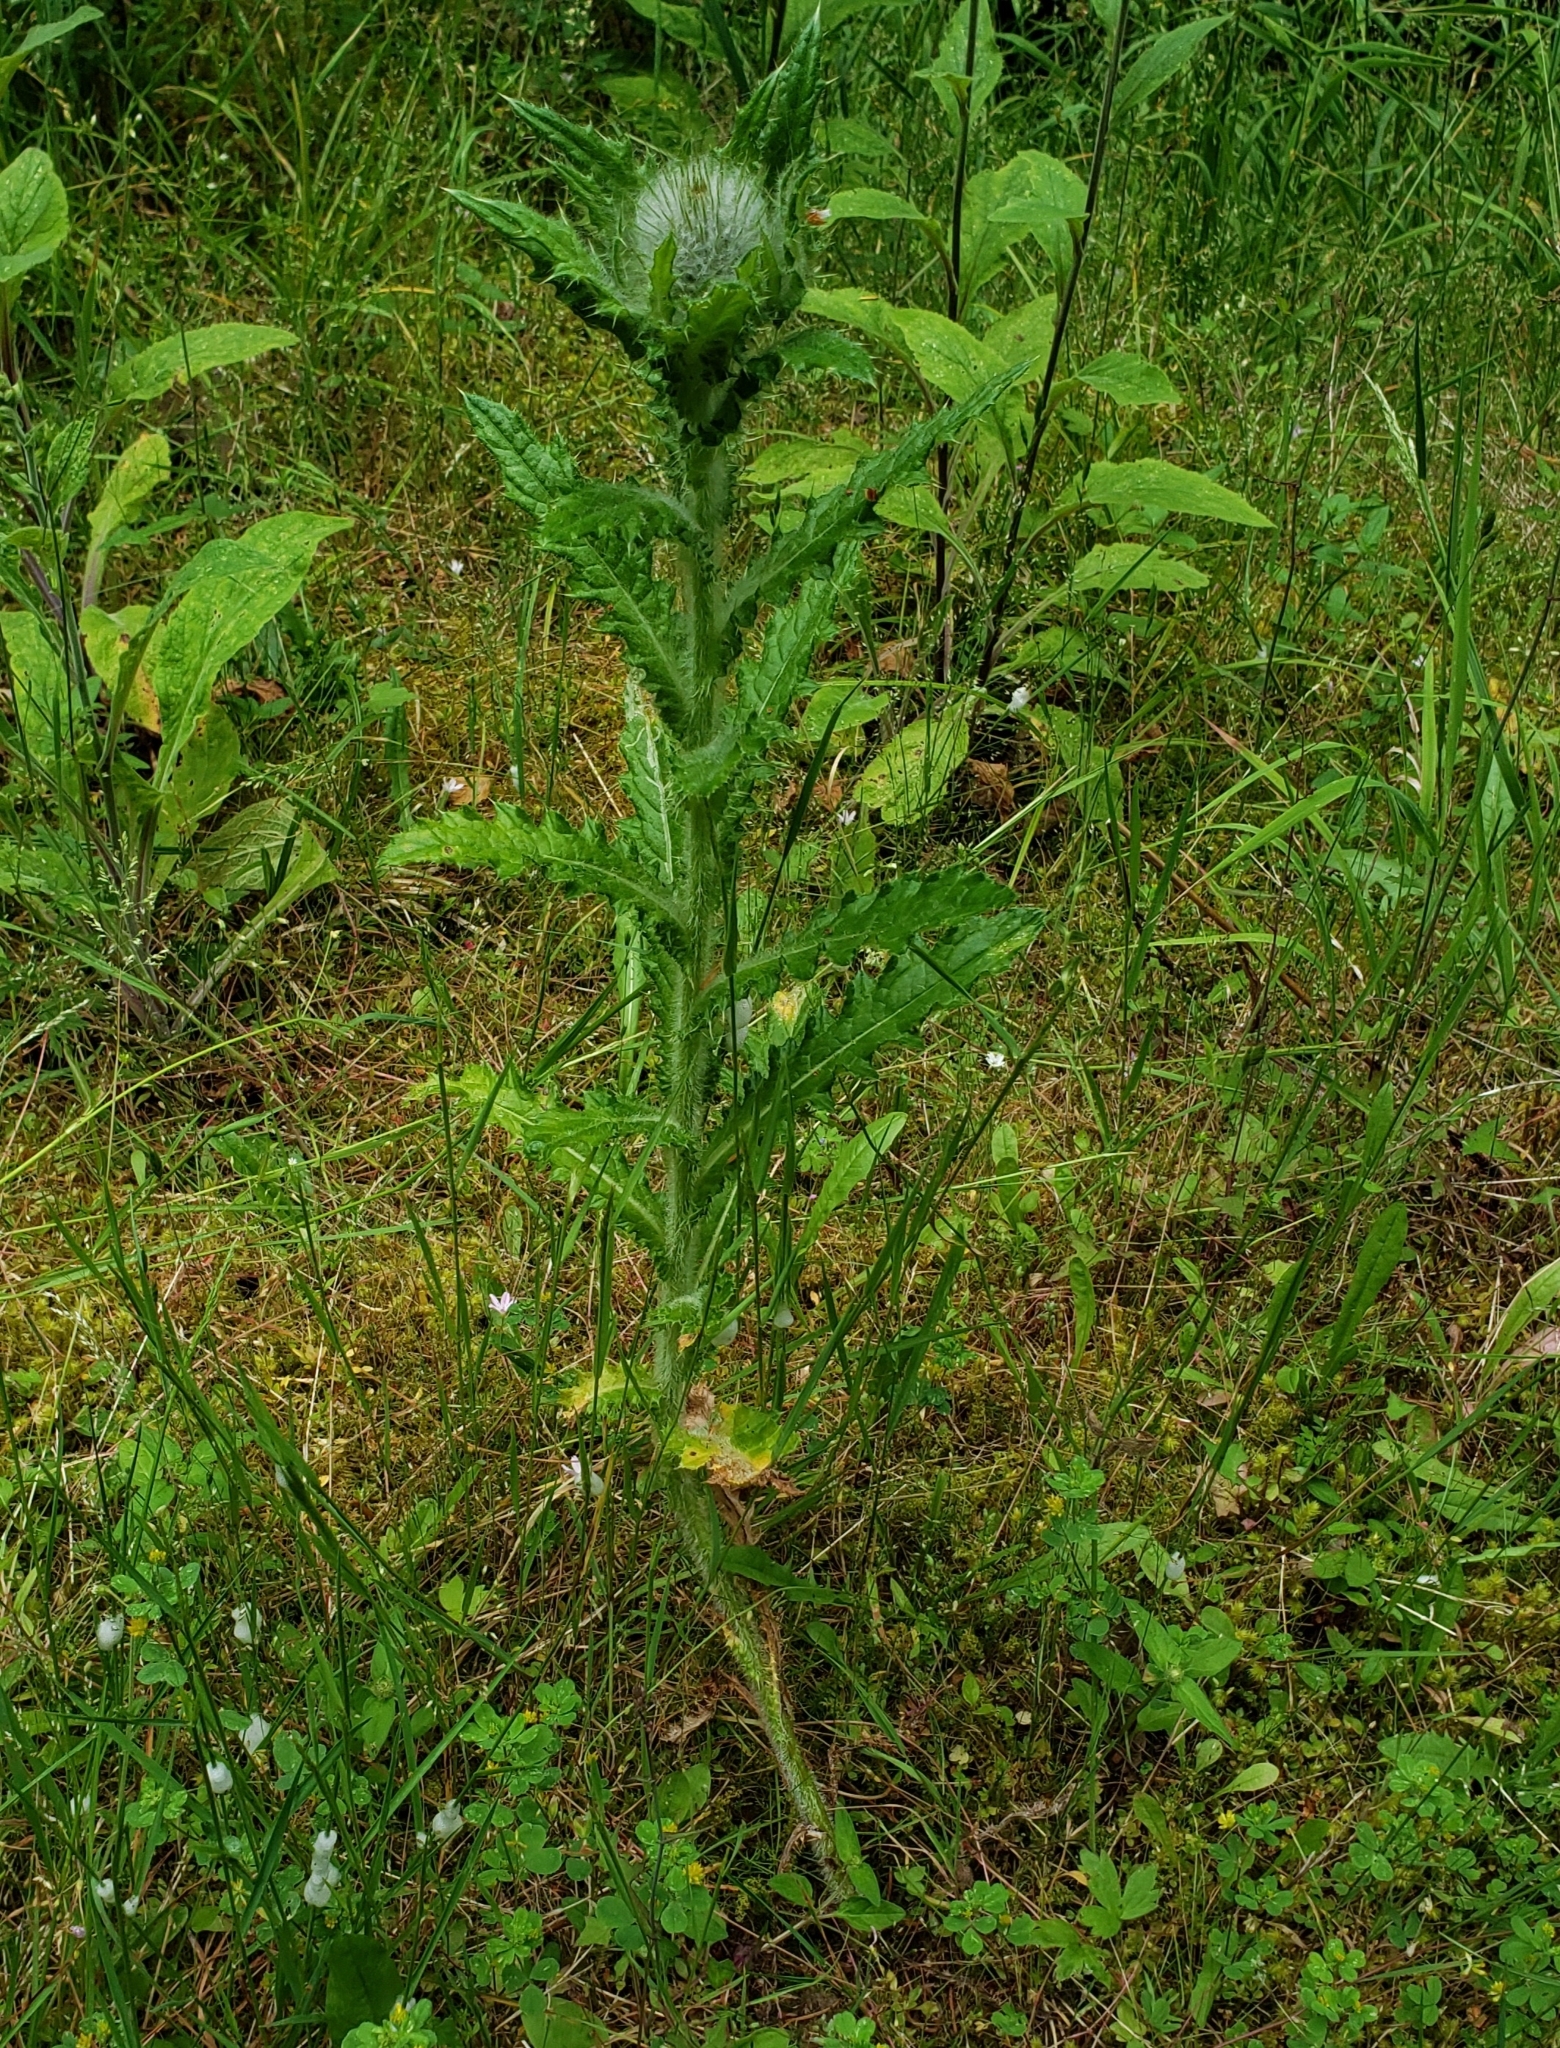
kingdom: Plantae
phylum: Tracheophyta
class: Magnoliopsida
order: Asterales
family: Asteraceae
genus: Cirsium
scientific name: Cirsium brevistylum
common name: Indian thistle
